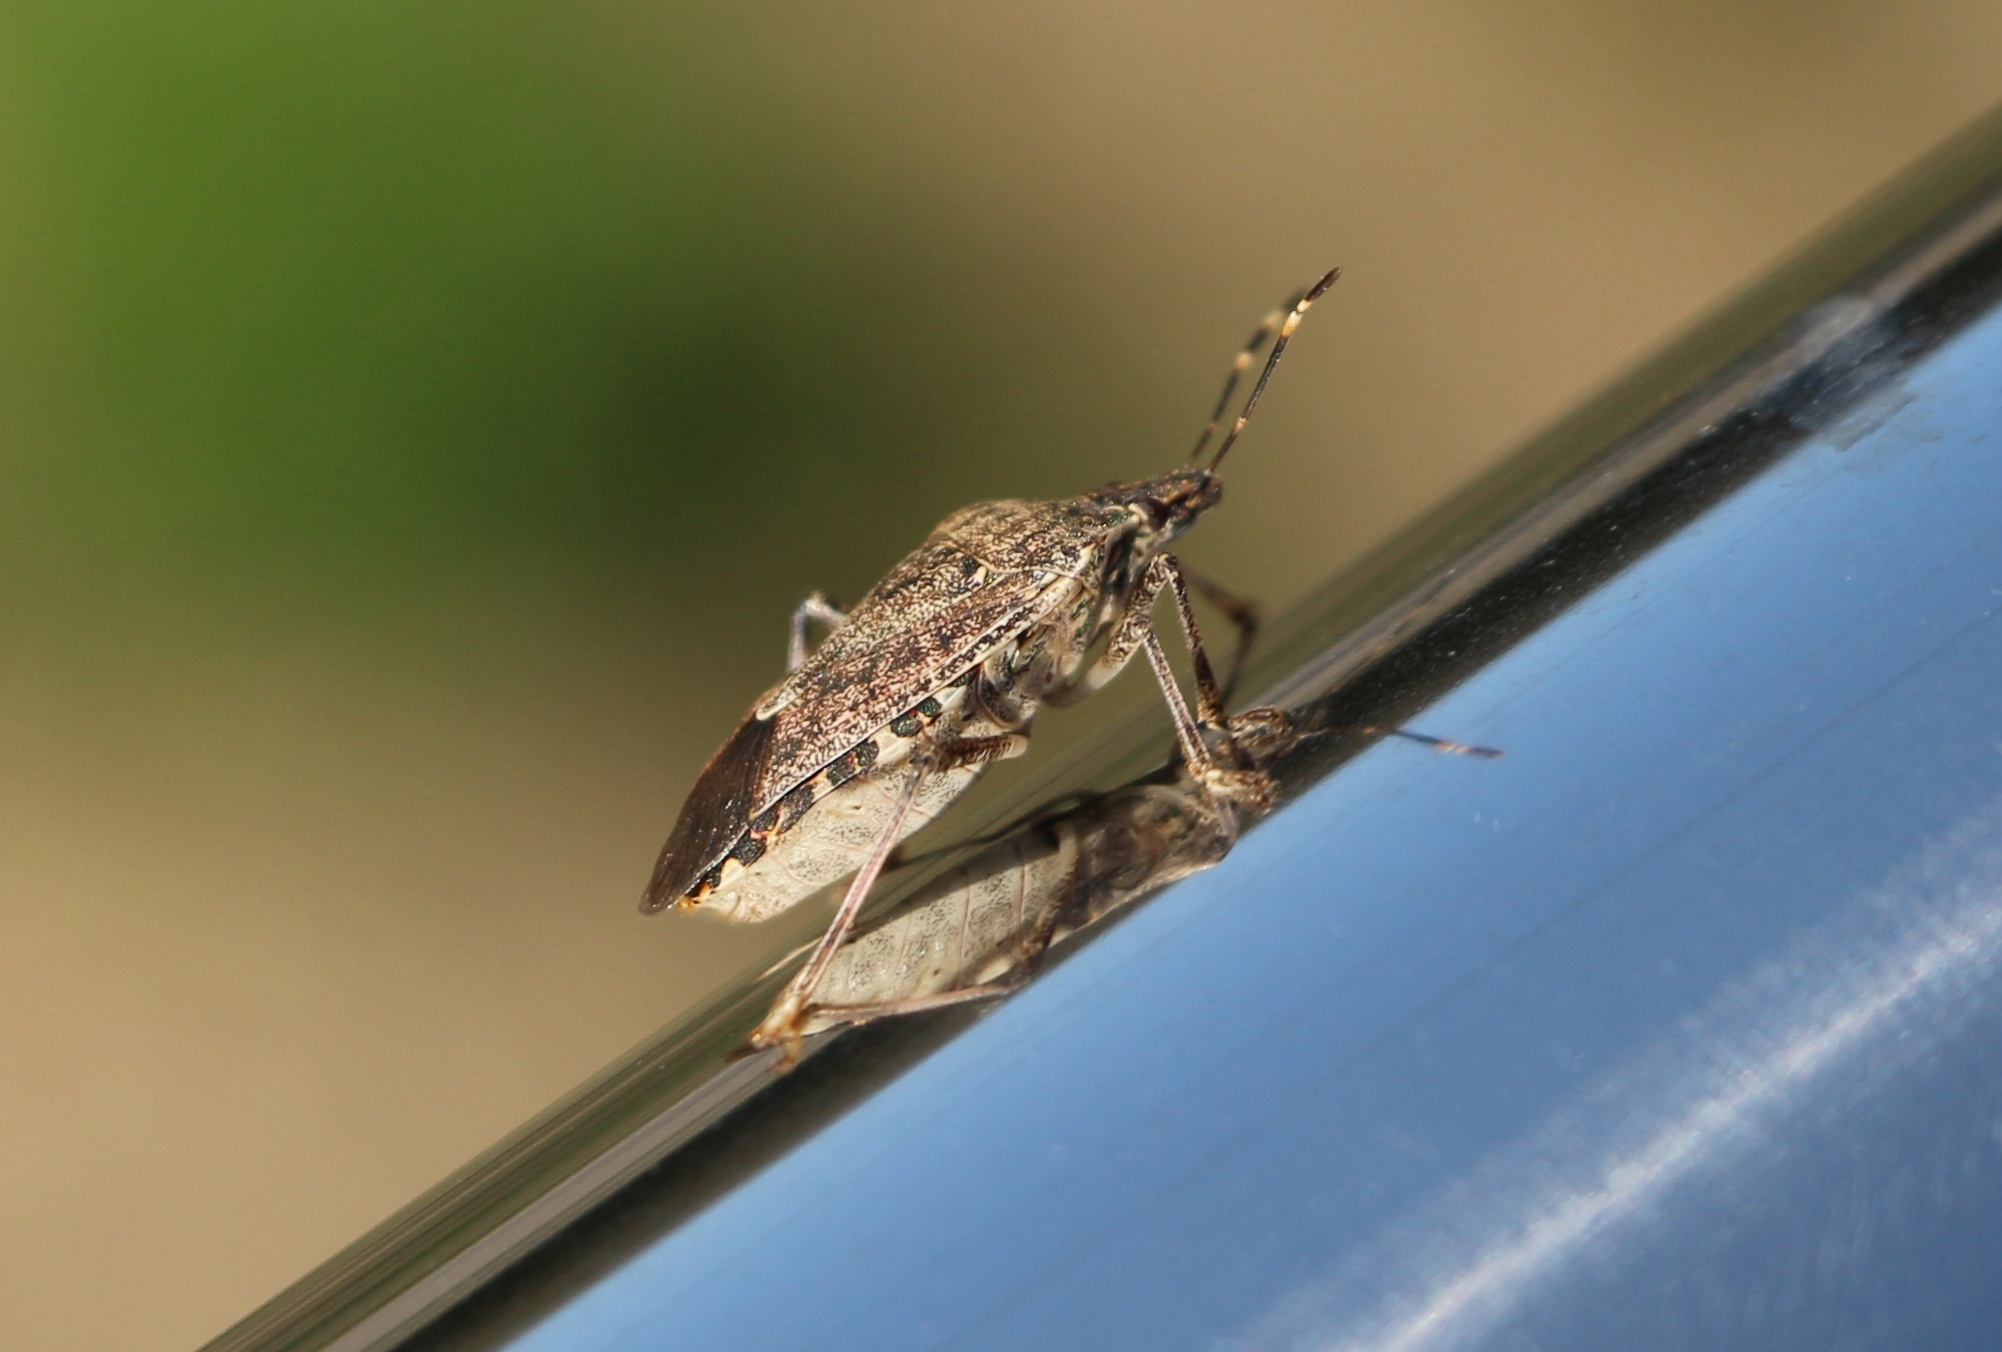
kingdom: Animalia
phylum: Arthropoda
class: Insecta
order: Hemiptera
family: Pentatomidae
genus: Halyomorpha
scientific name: Halyomorpha halys
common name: Brown marmorated stink bug
